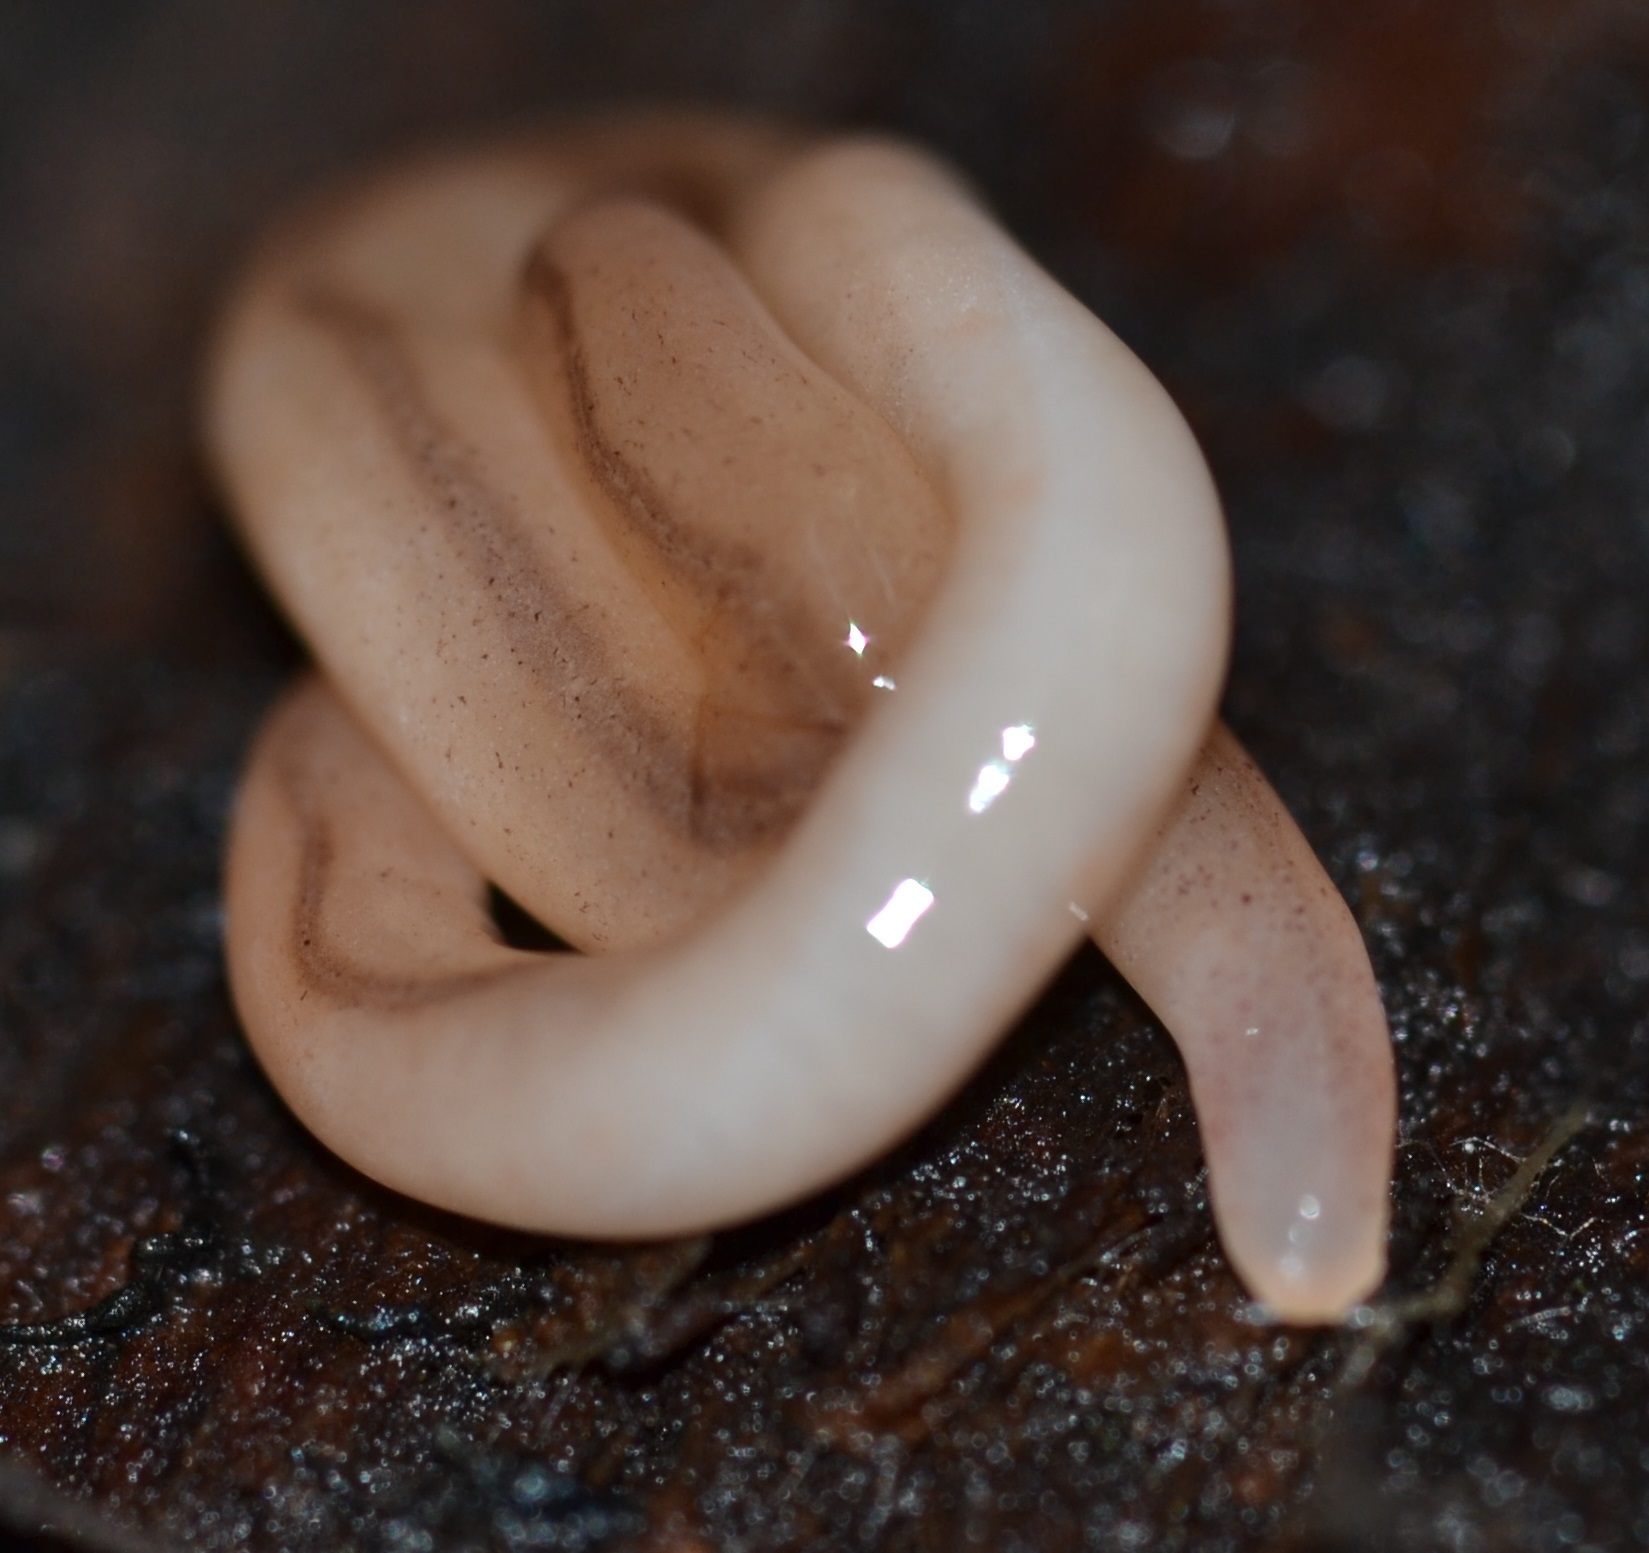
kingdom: Animalia
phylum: Nemertea
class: Hoplonemertea
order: Monostilifera
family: Prosorhochmidae
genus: Geonemertes
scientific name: Geonemertes pelaensis
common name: Land nemertean
